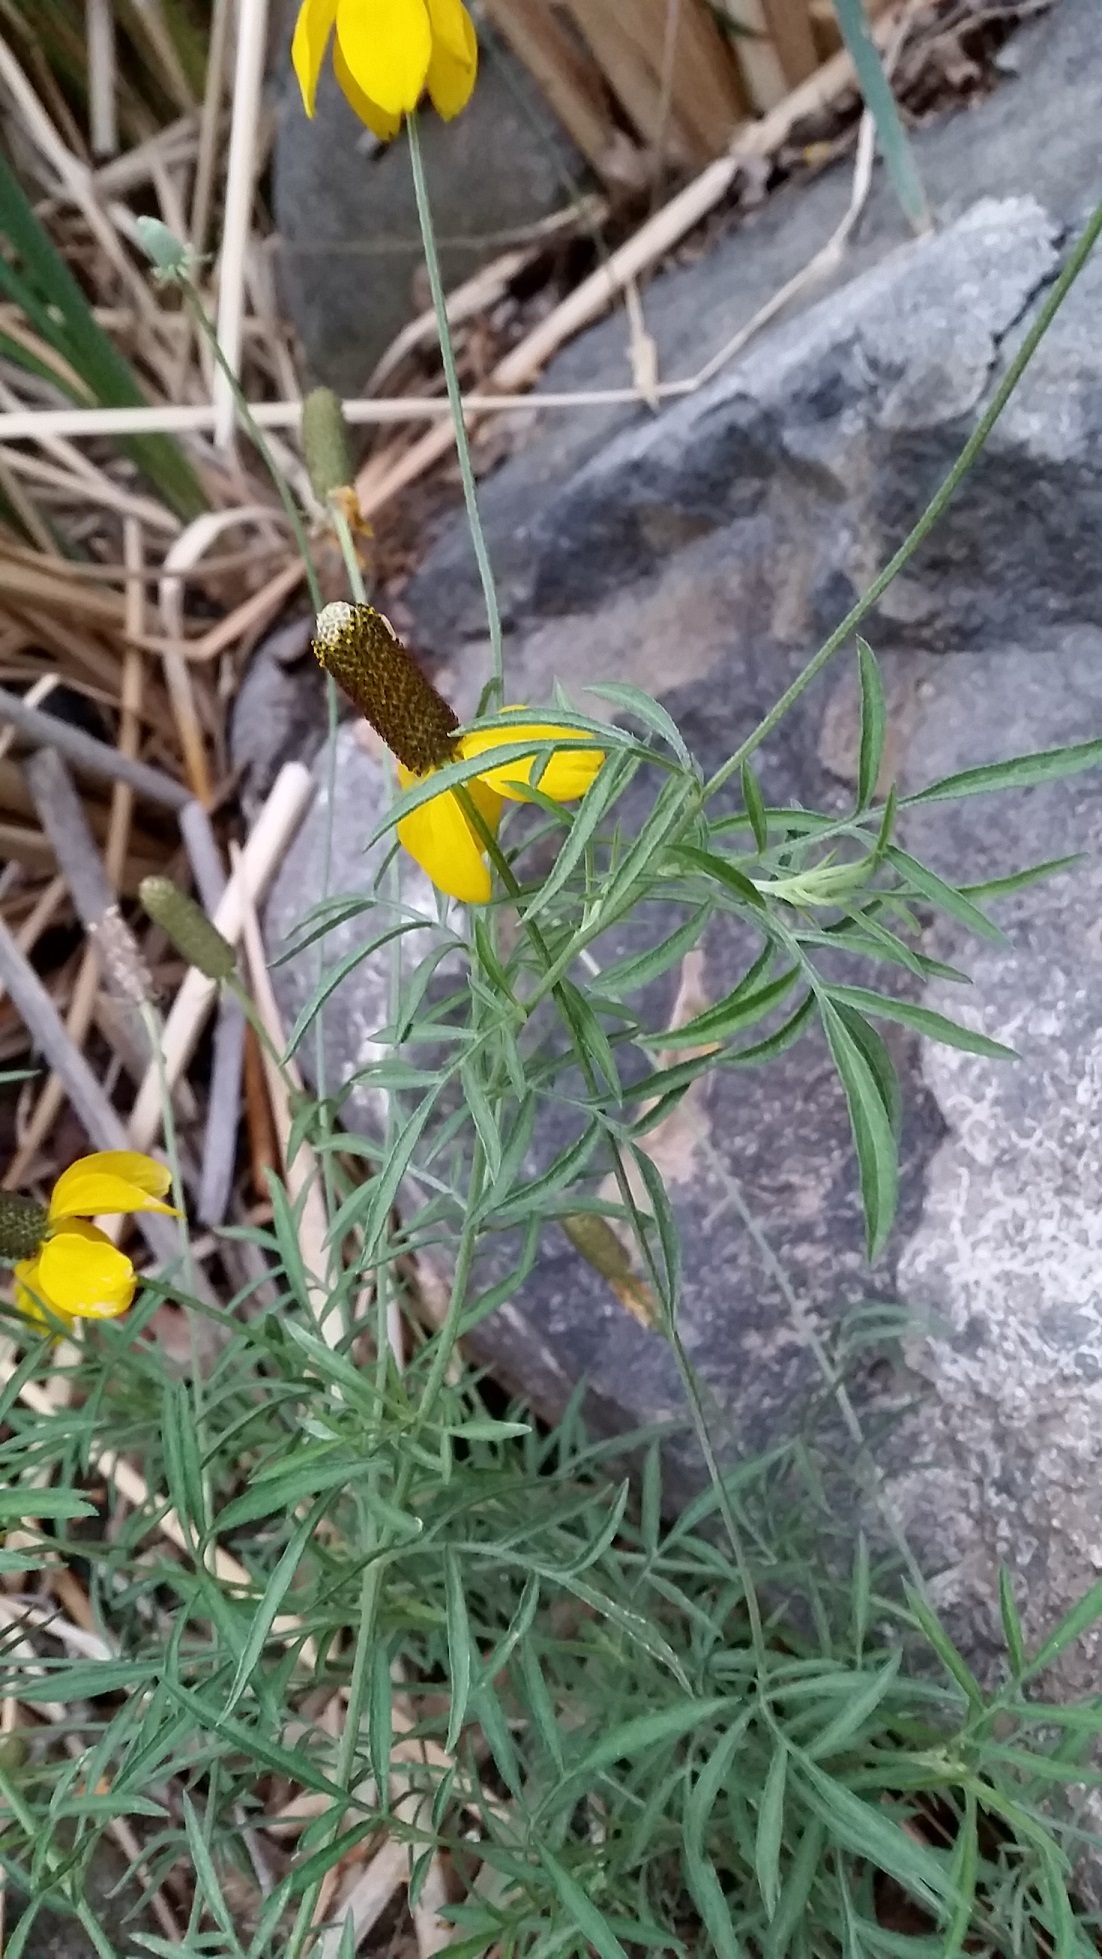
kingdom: Plantae
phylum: Tracheophyta
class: Magnoliopsida
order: Asterales
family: Asteraceae
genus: Ratibida
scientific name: Ratibida columnifera
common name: Prairie coneflower
